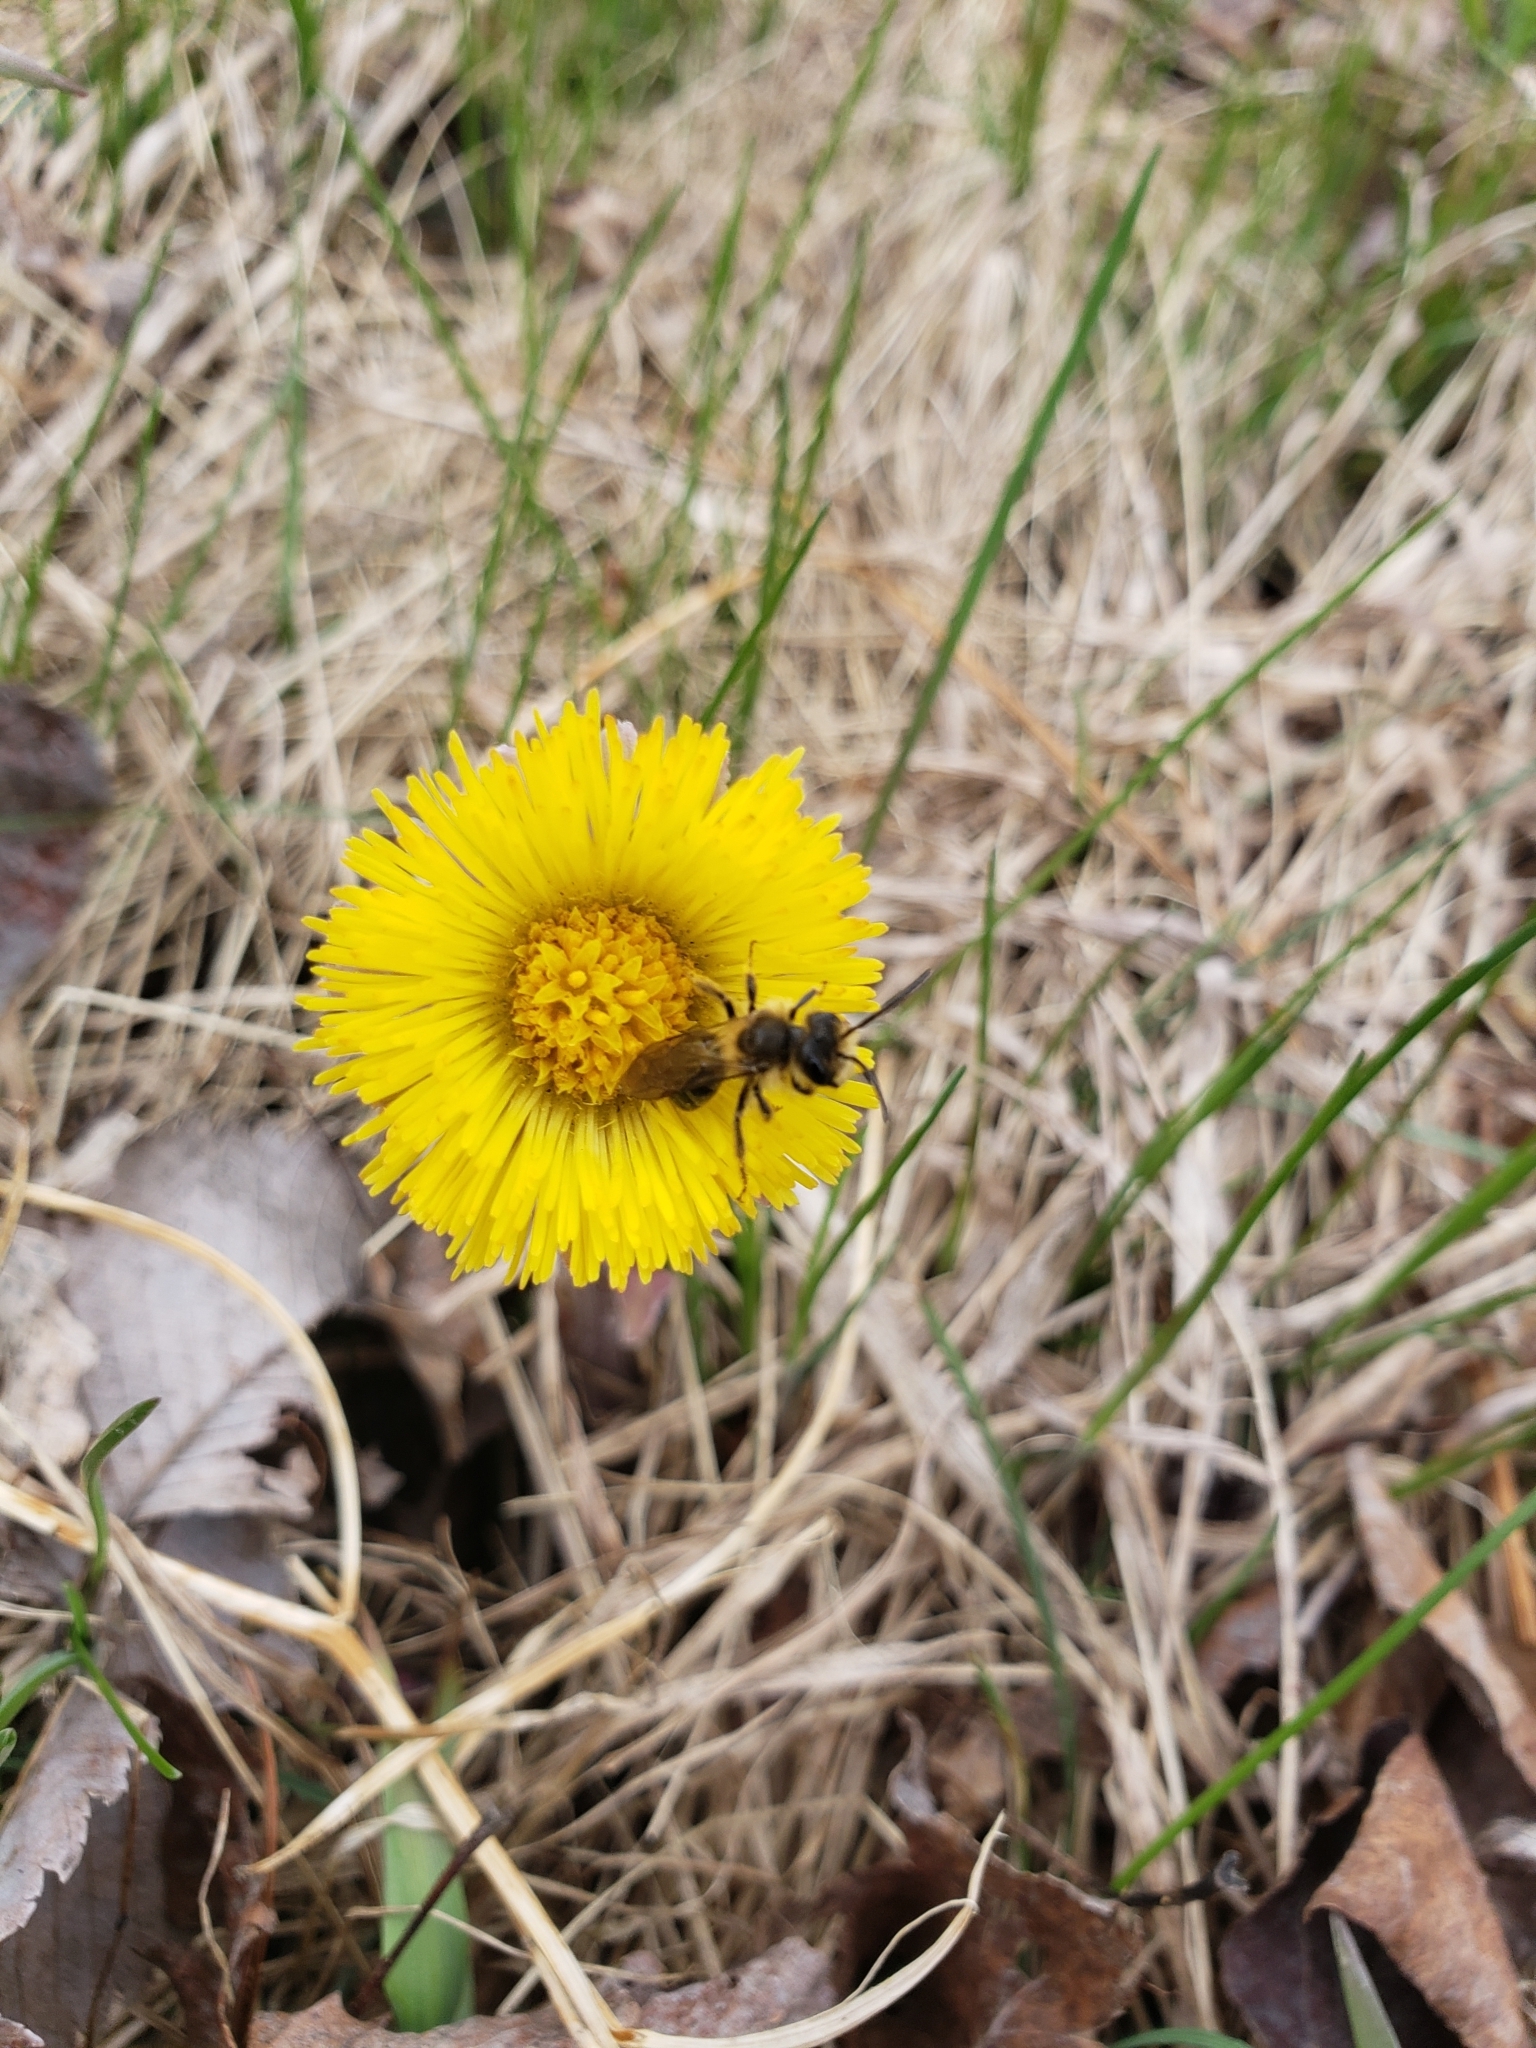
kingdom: Plantae
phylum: Tracheophyta
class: Magnoliopsida
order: Asterales
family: Asteraceae
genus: Tussilago
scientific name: Tussilago farfara
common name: Coltsfoot
